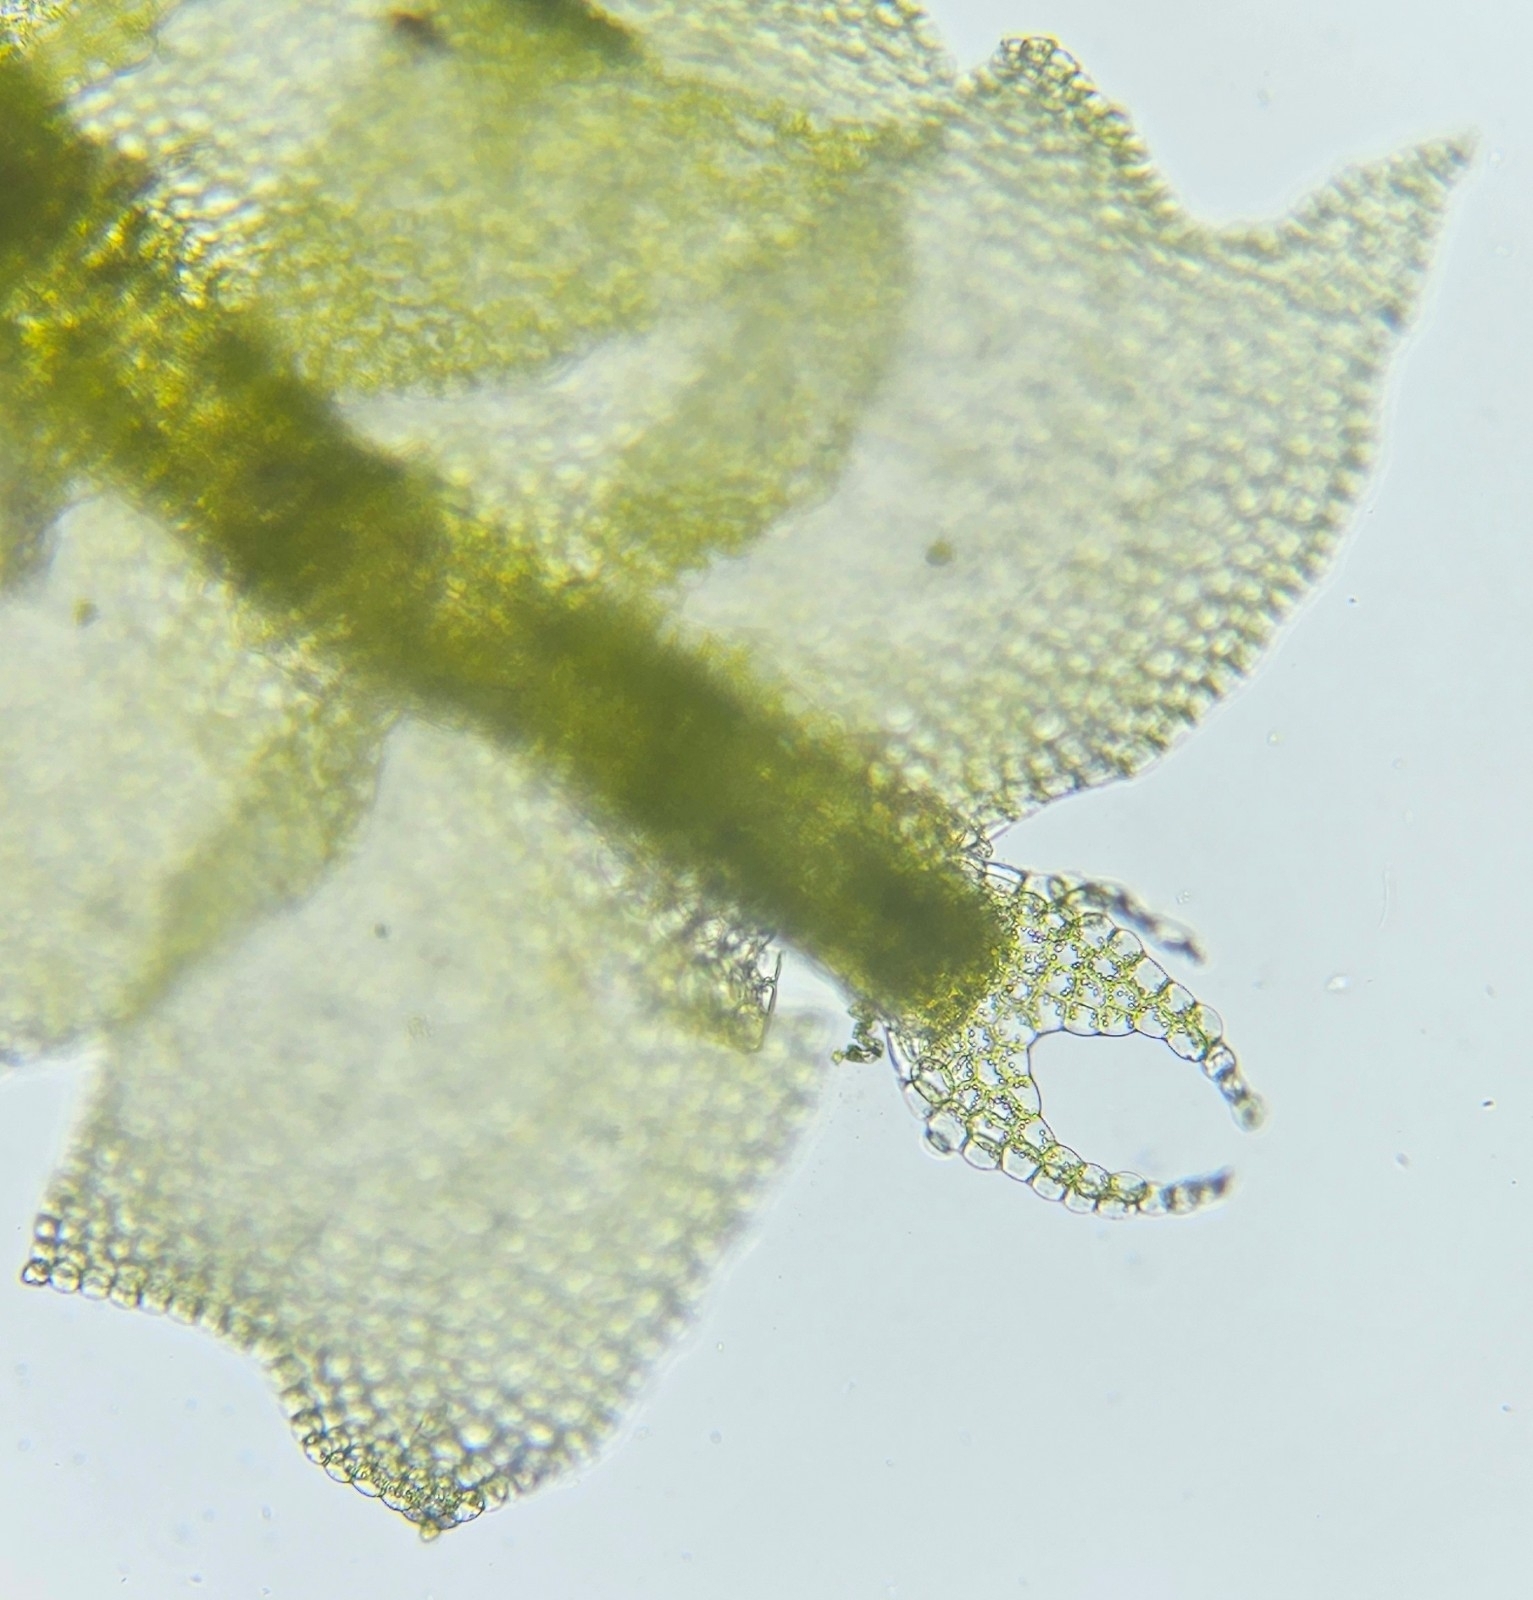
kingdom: Plantae
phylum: Marchantiophyta
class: Jungermanniopsida
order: Jungermanniales
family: Lophocoleaceae
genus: Lophocolea
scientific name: Lophocolea heterophylla
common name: Variable-leaved crestwort
